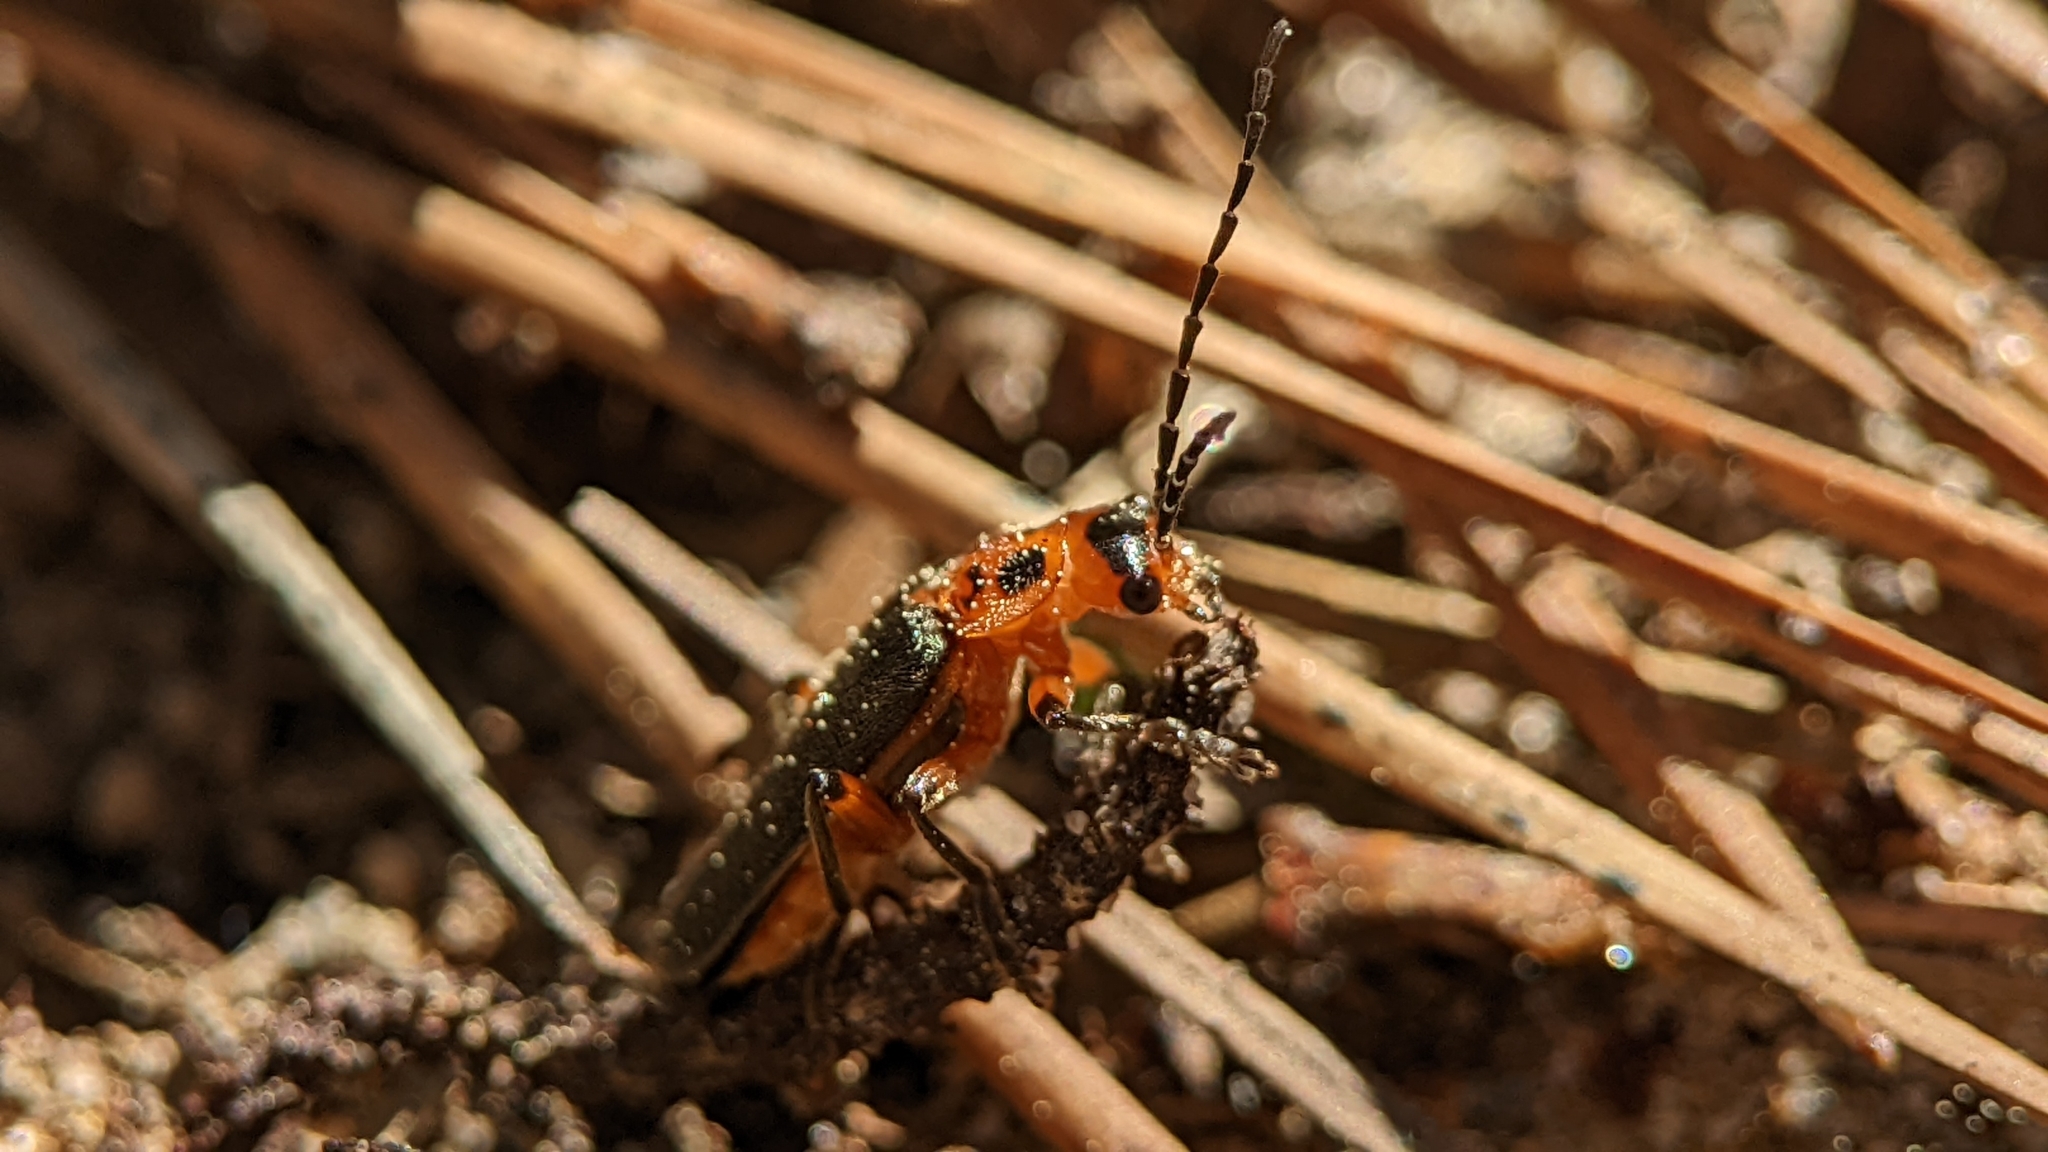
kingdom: Animalia
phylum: Arthropoda
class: Insecta
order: Coleoptera
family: Cantharidae
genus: Atalantycha
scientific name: Atalantycha bilineata
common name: Two-lined leatherwing
